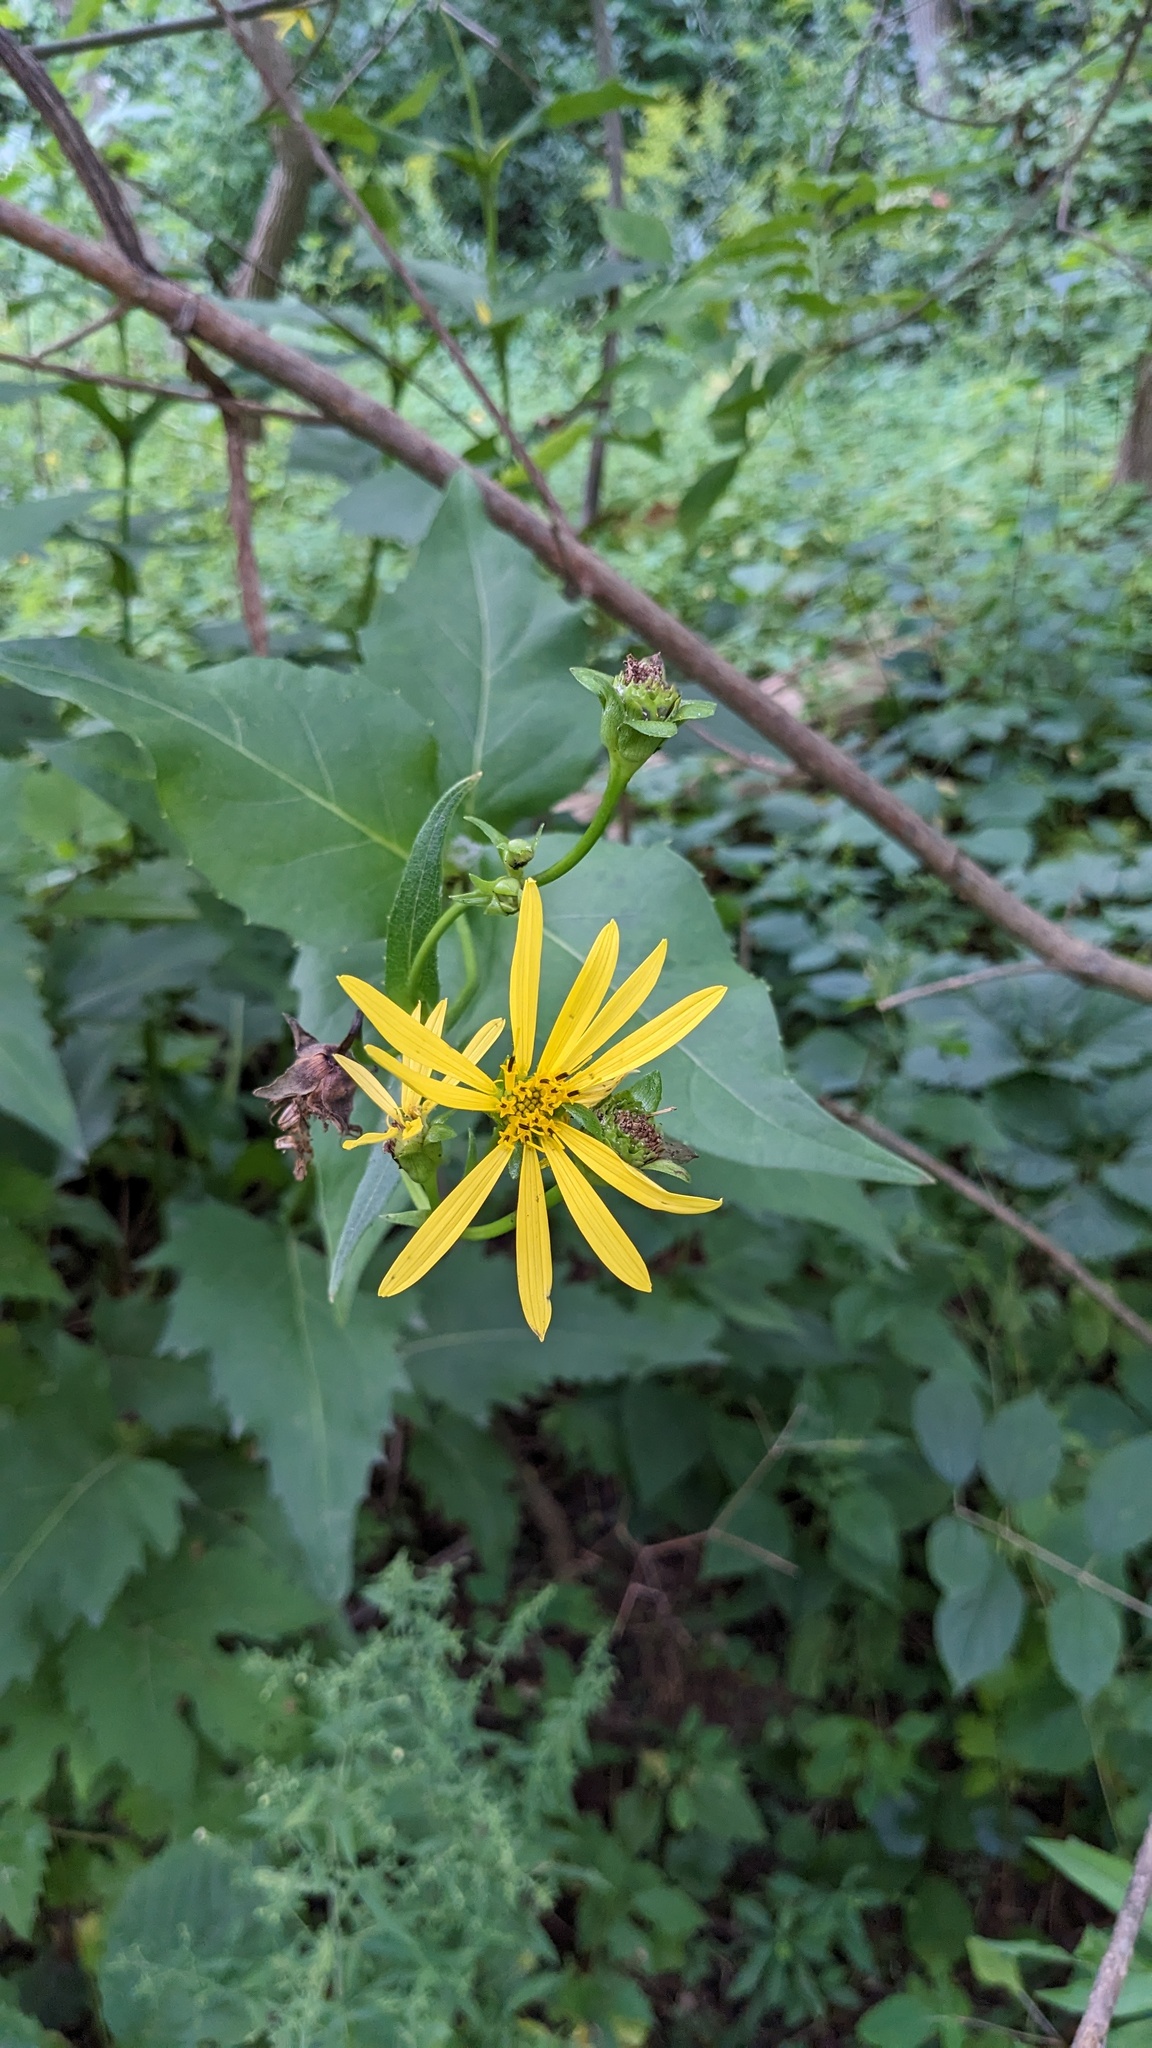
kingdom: Plantae
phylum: Tracheophyta
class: Magnoliopsida
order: Asterales
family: Asteraceae
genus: Silphium
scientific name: Silphium perfoliatum
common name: Cup-plant
